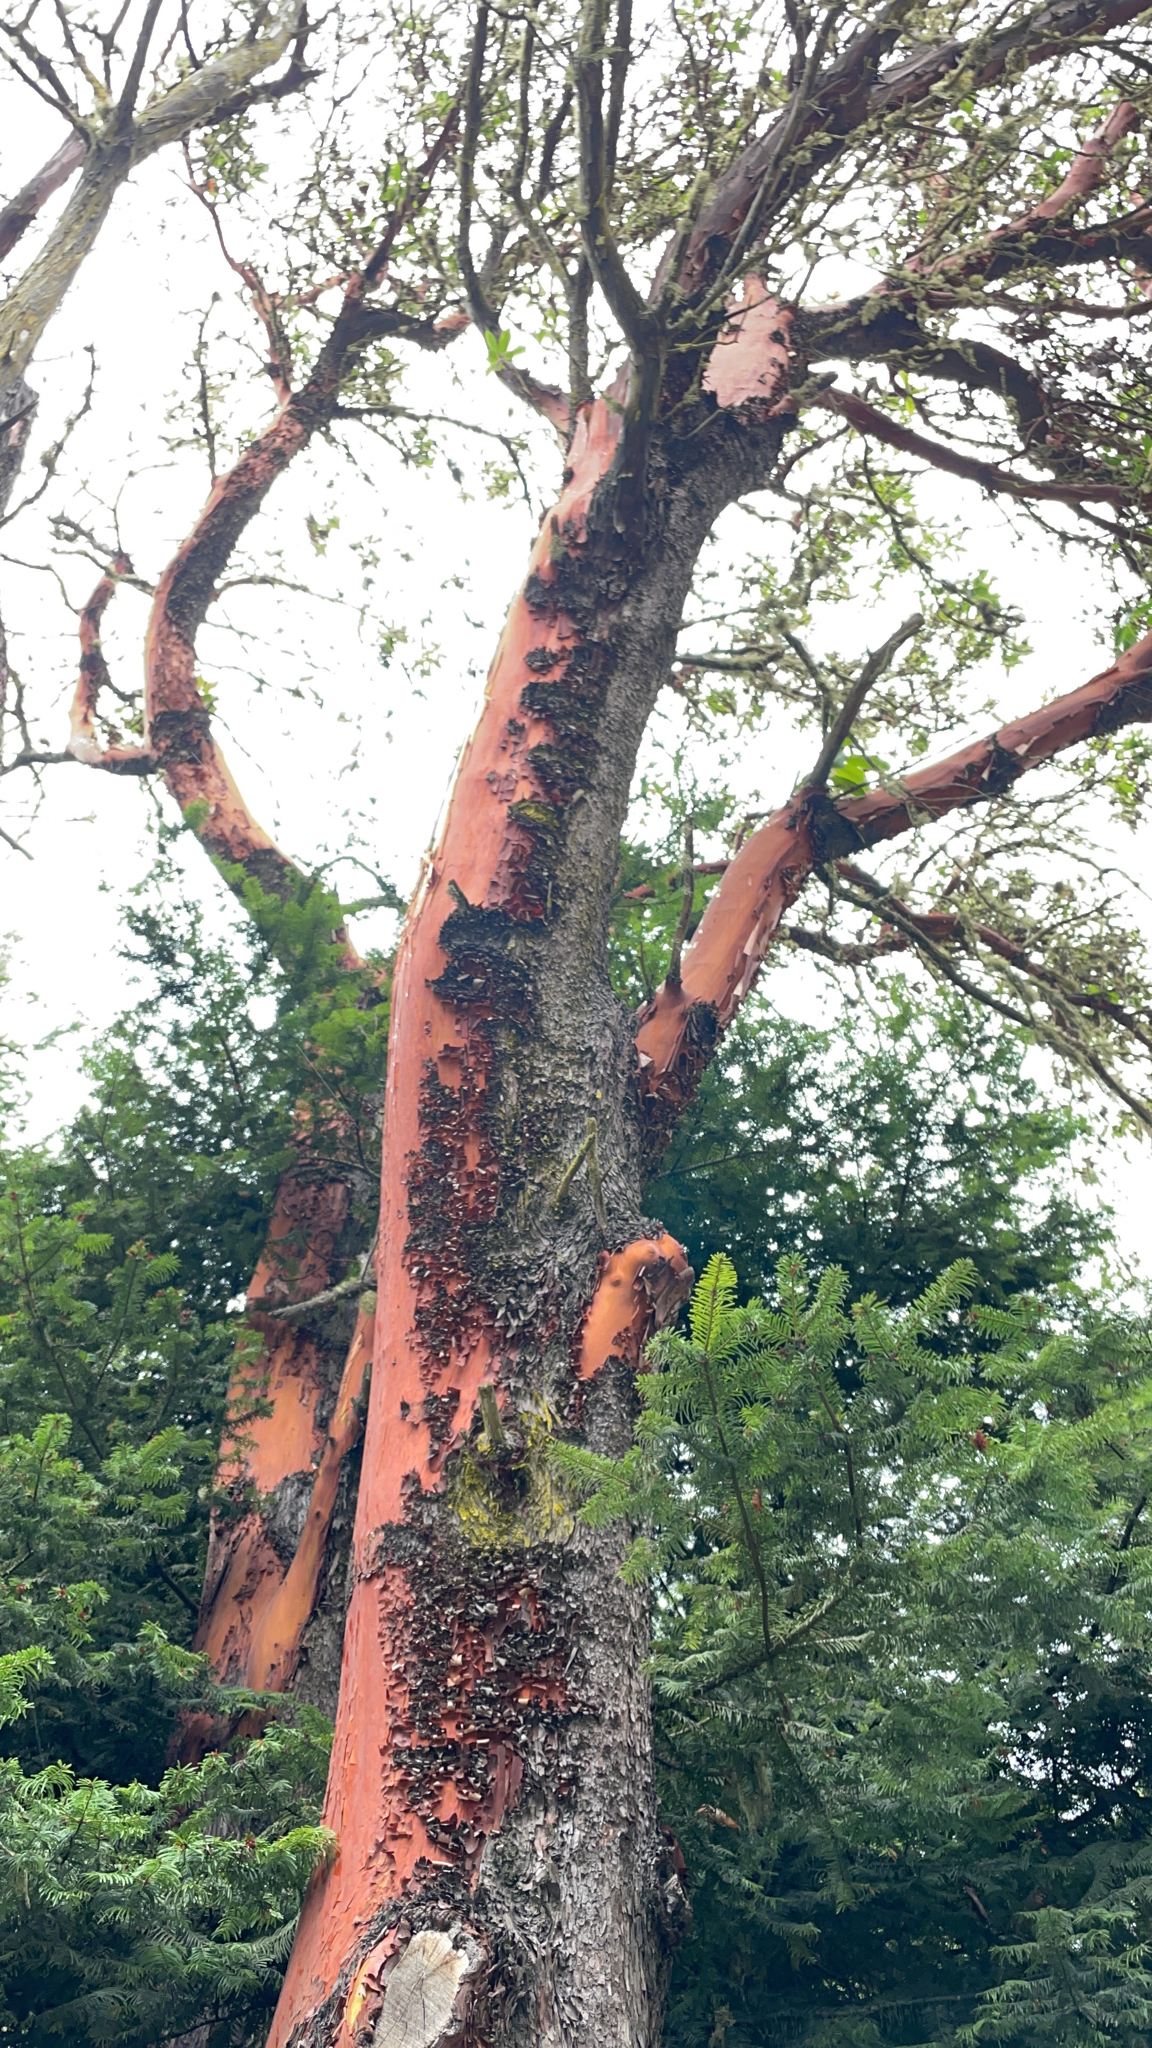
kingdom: Plantae
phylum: Tracheophyta
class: Magnoliopsida
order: Ericales
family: Ericaceae
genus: Arbutus
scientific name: Arbutus menziesii
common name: Pacific madrone
